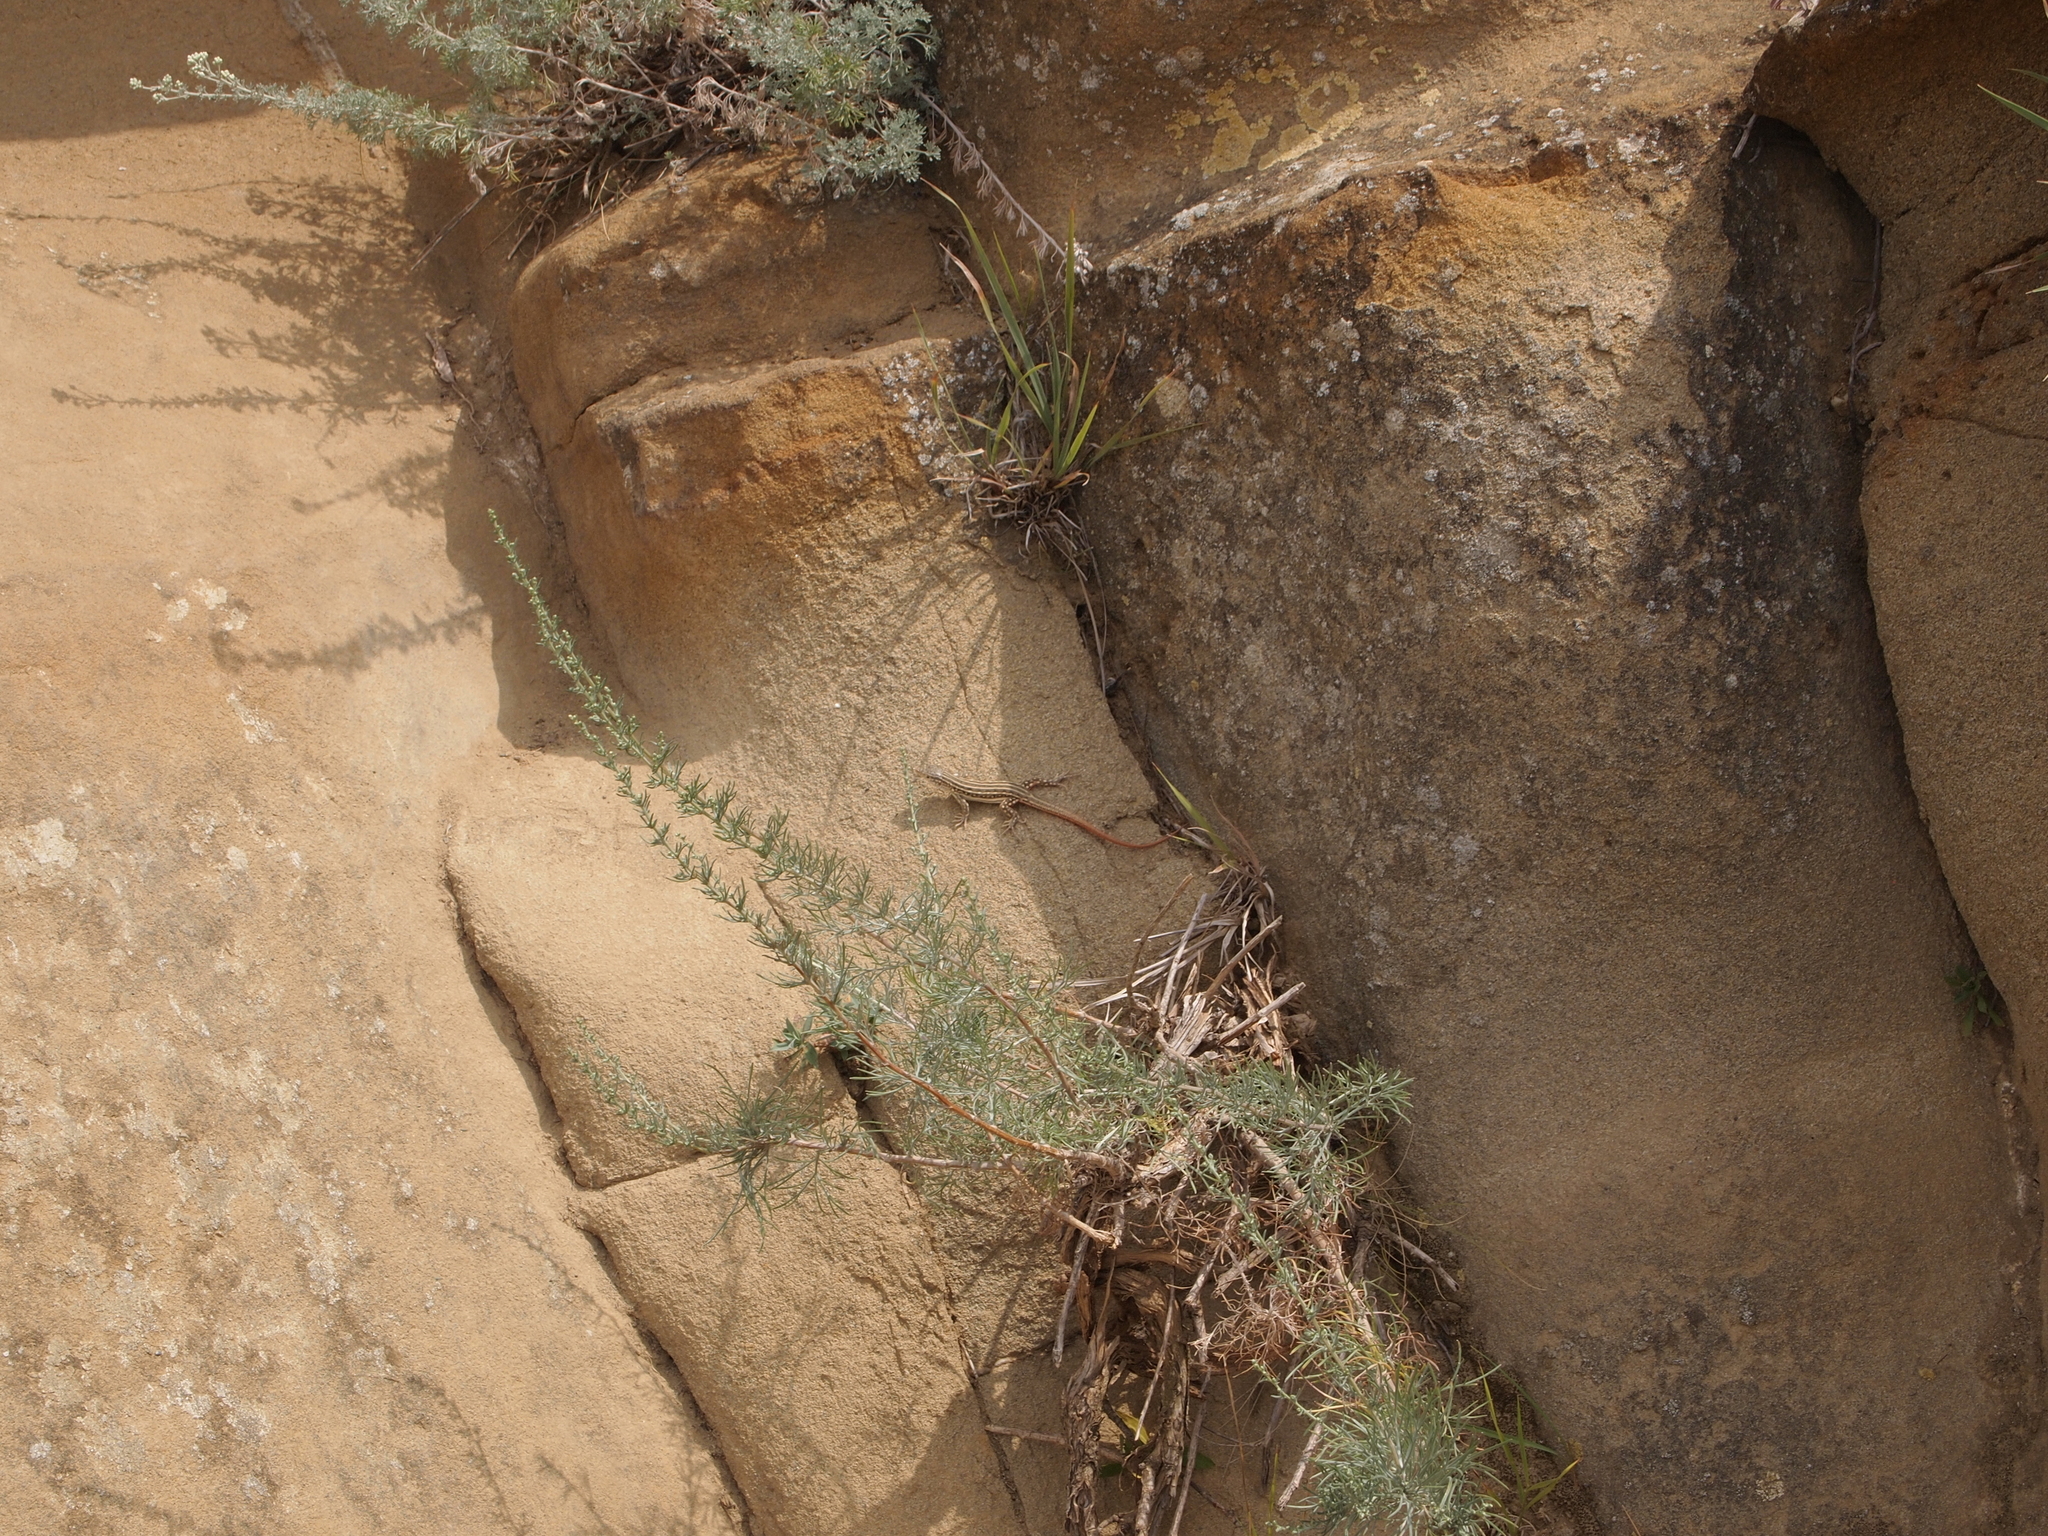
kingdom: Animalia
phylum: Chordata
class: Squamata
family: Lacertidae
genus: Eremias
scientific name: Eremias velox
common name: Central asian racerunner
